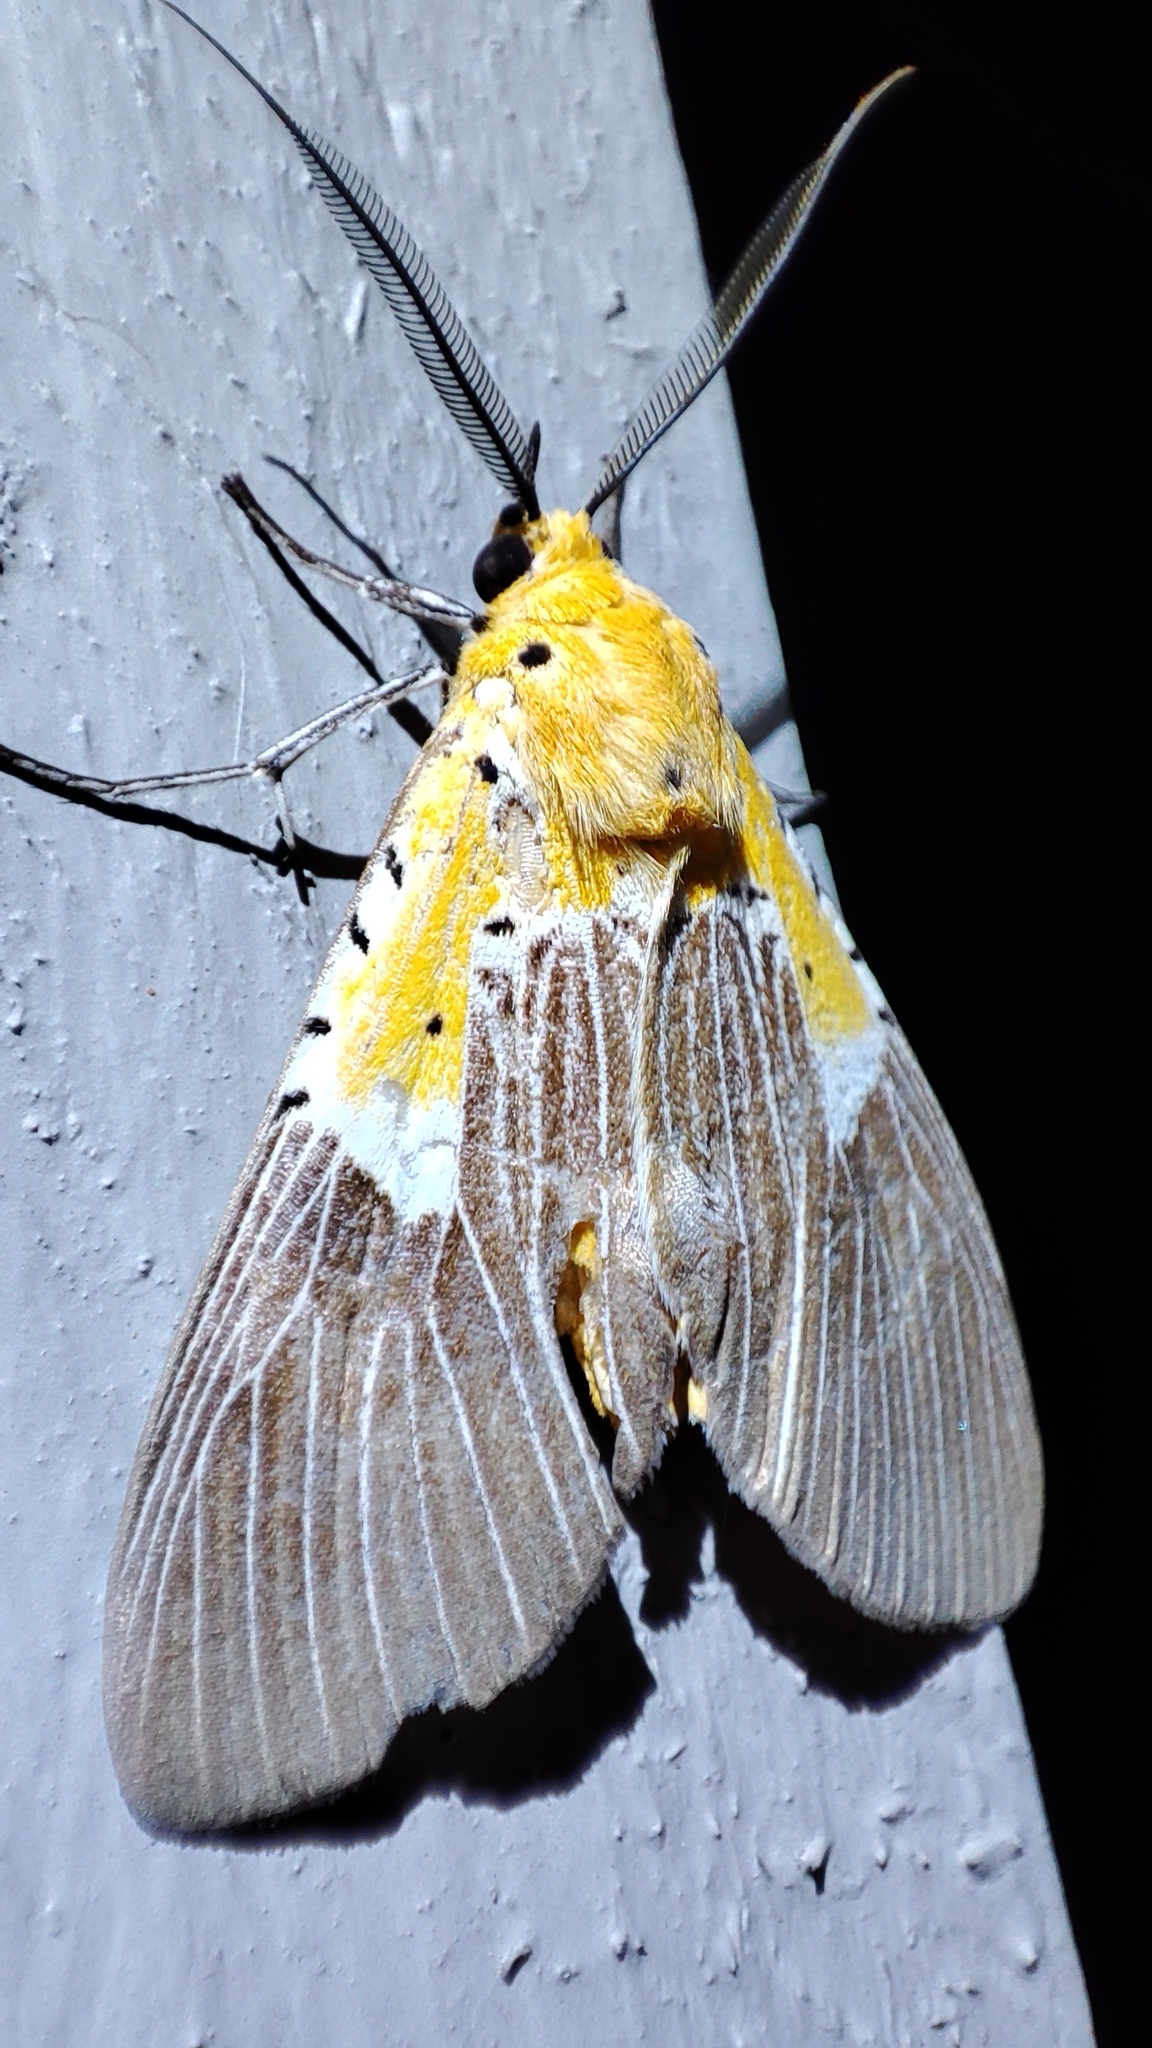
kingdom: Animalia
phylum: Arthropoda
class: Insecta
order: Lepidoptera
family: Erebidae
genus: Asota
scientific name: Asota speciosa
